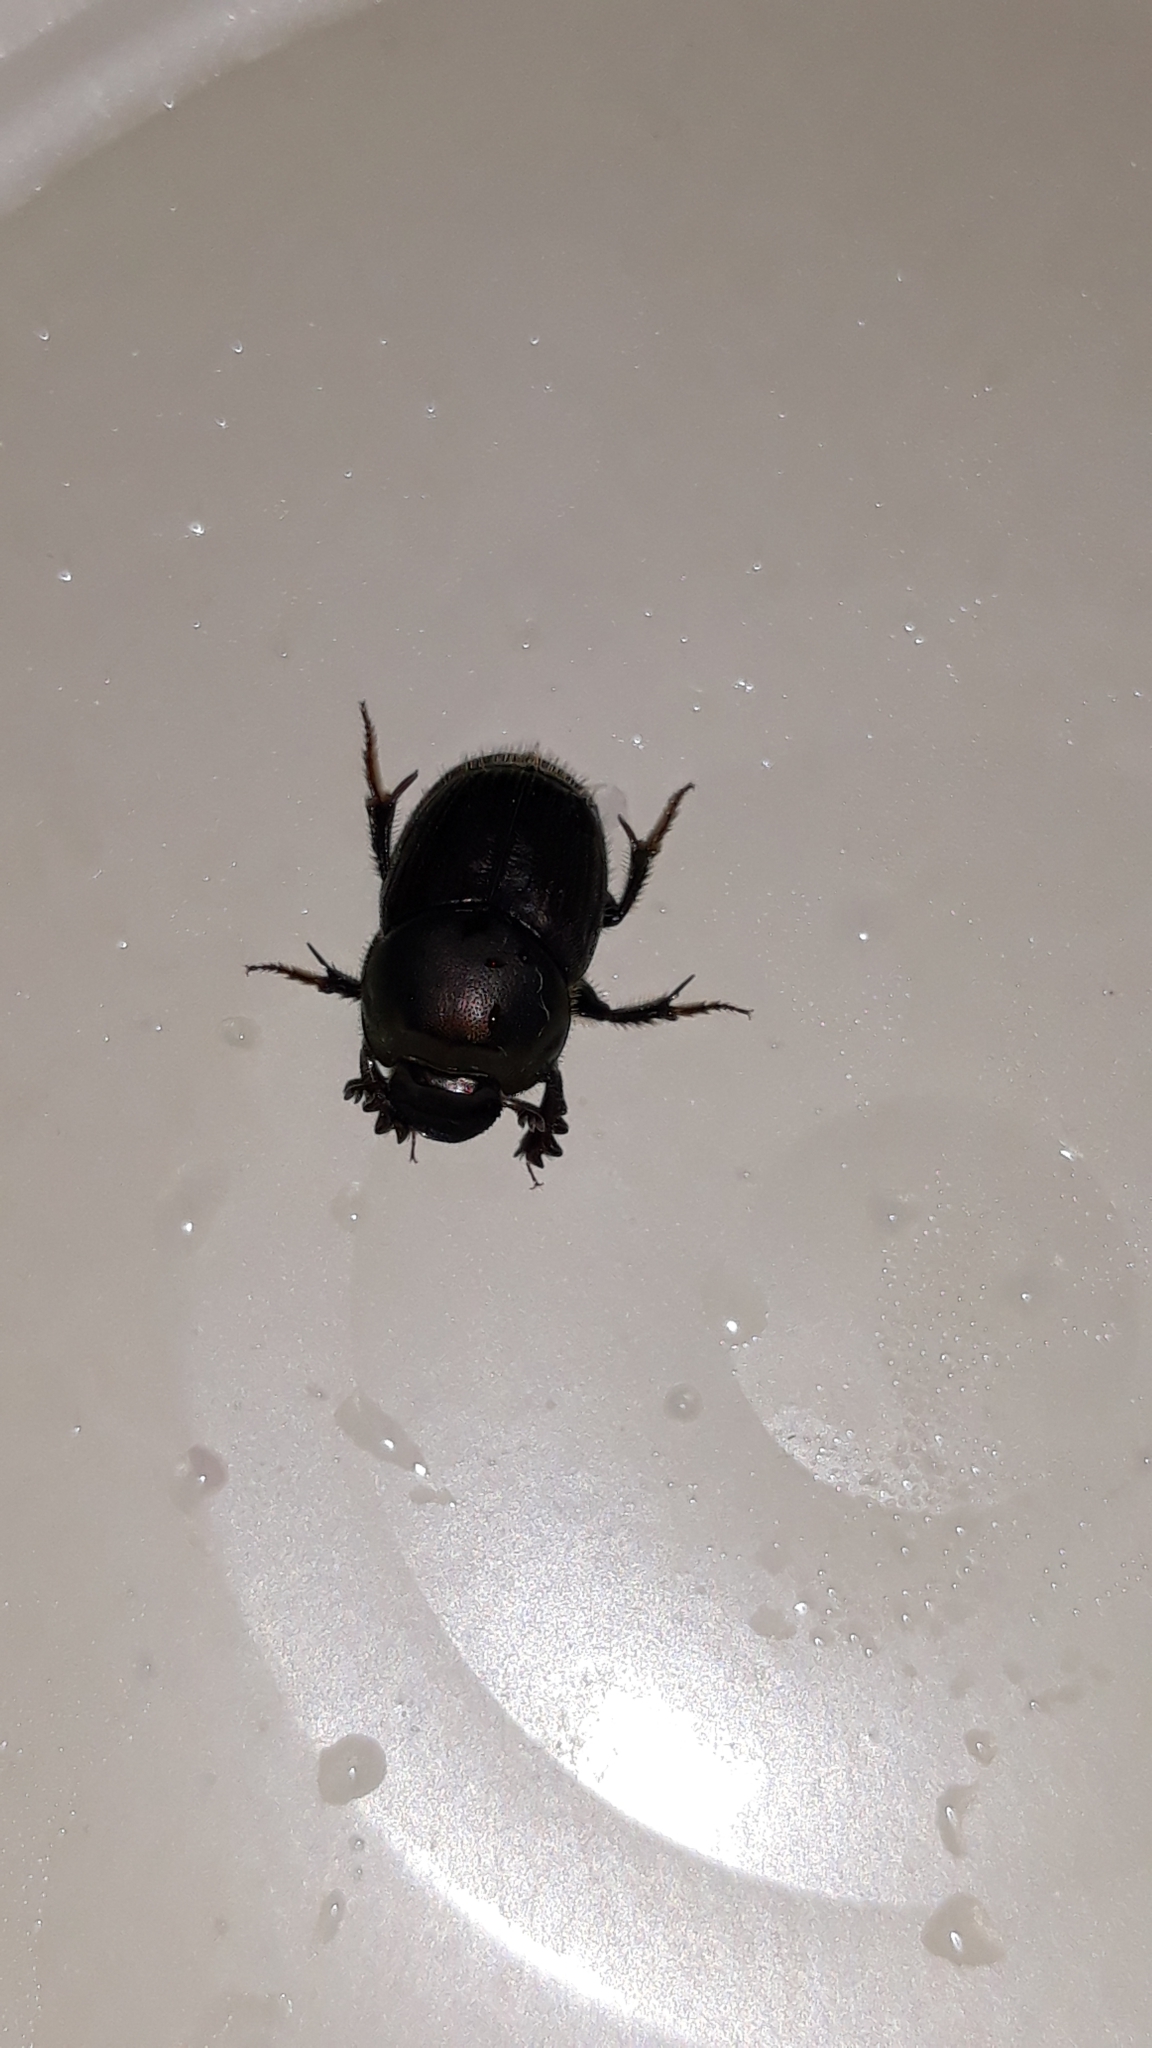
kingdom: Animalia
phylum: Arthropoda
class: Insecta
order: Coleoptera
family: Scarabaeidae
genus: Onthophagus
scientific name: Onthophagus taurus
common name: Bullhorned dung beetle
